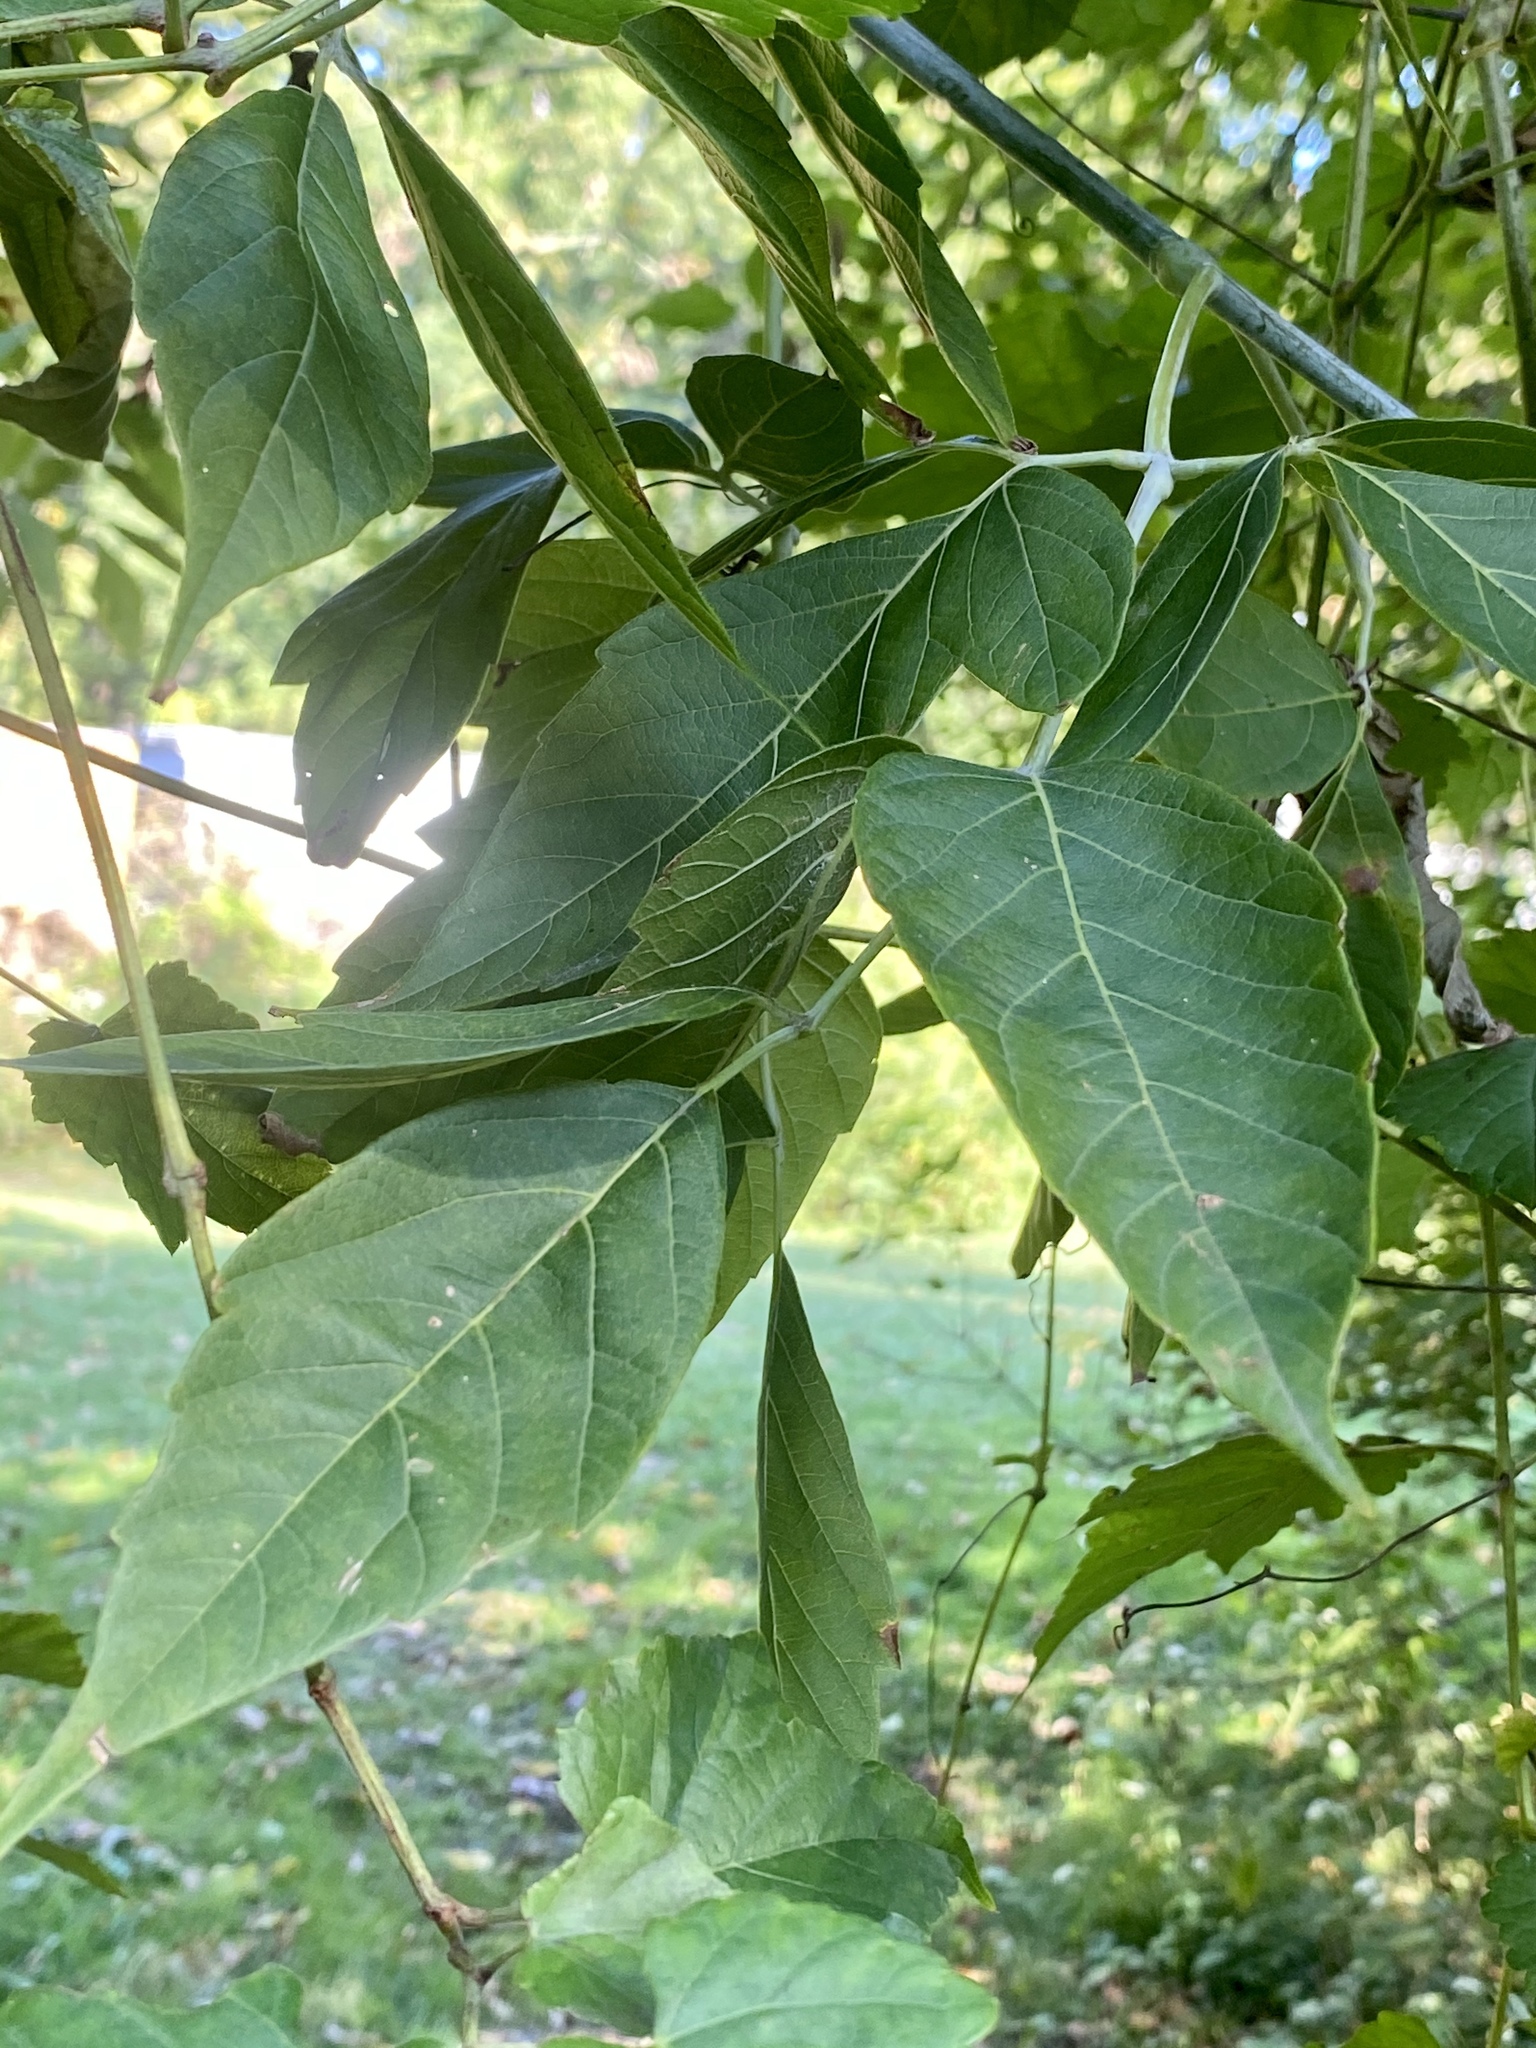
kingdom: Plantae
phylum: Tracheophyta
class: Magnoliopsida
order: Sapindales
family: Sapindaceae
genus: Acer
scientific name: Acer negundo
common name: Ashleaf maple
